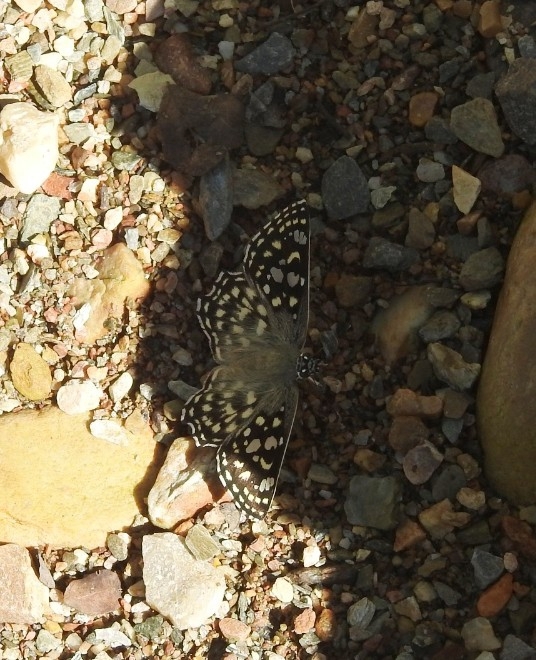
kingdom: Animalia
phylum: Arthropoda
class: Insecta
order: Lepidoptera
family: Hesperiidae
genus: Caprona
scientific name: Caprona agama
